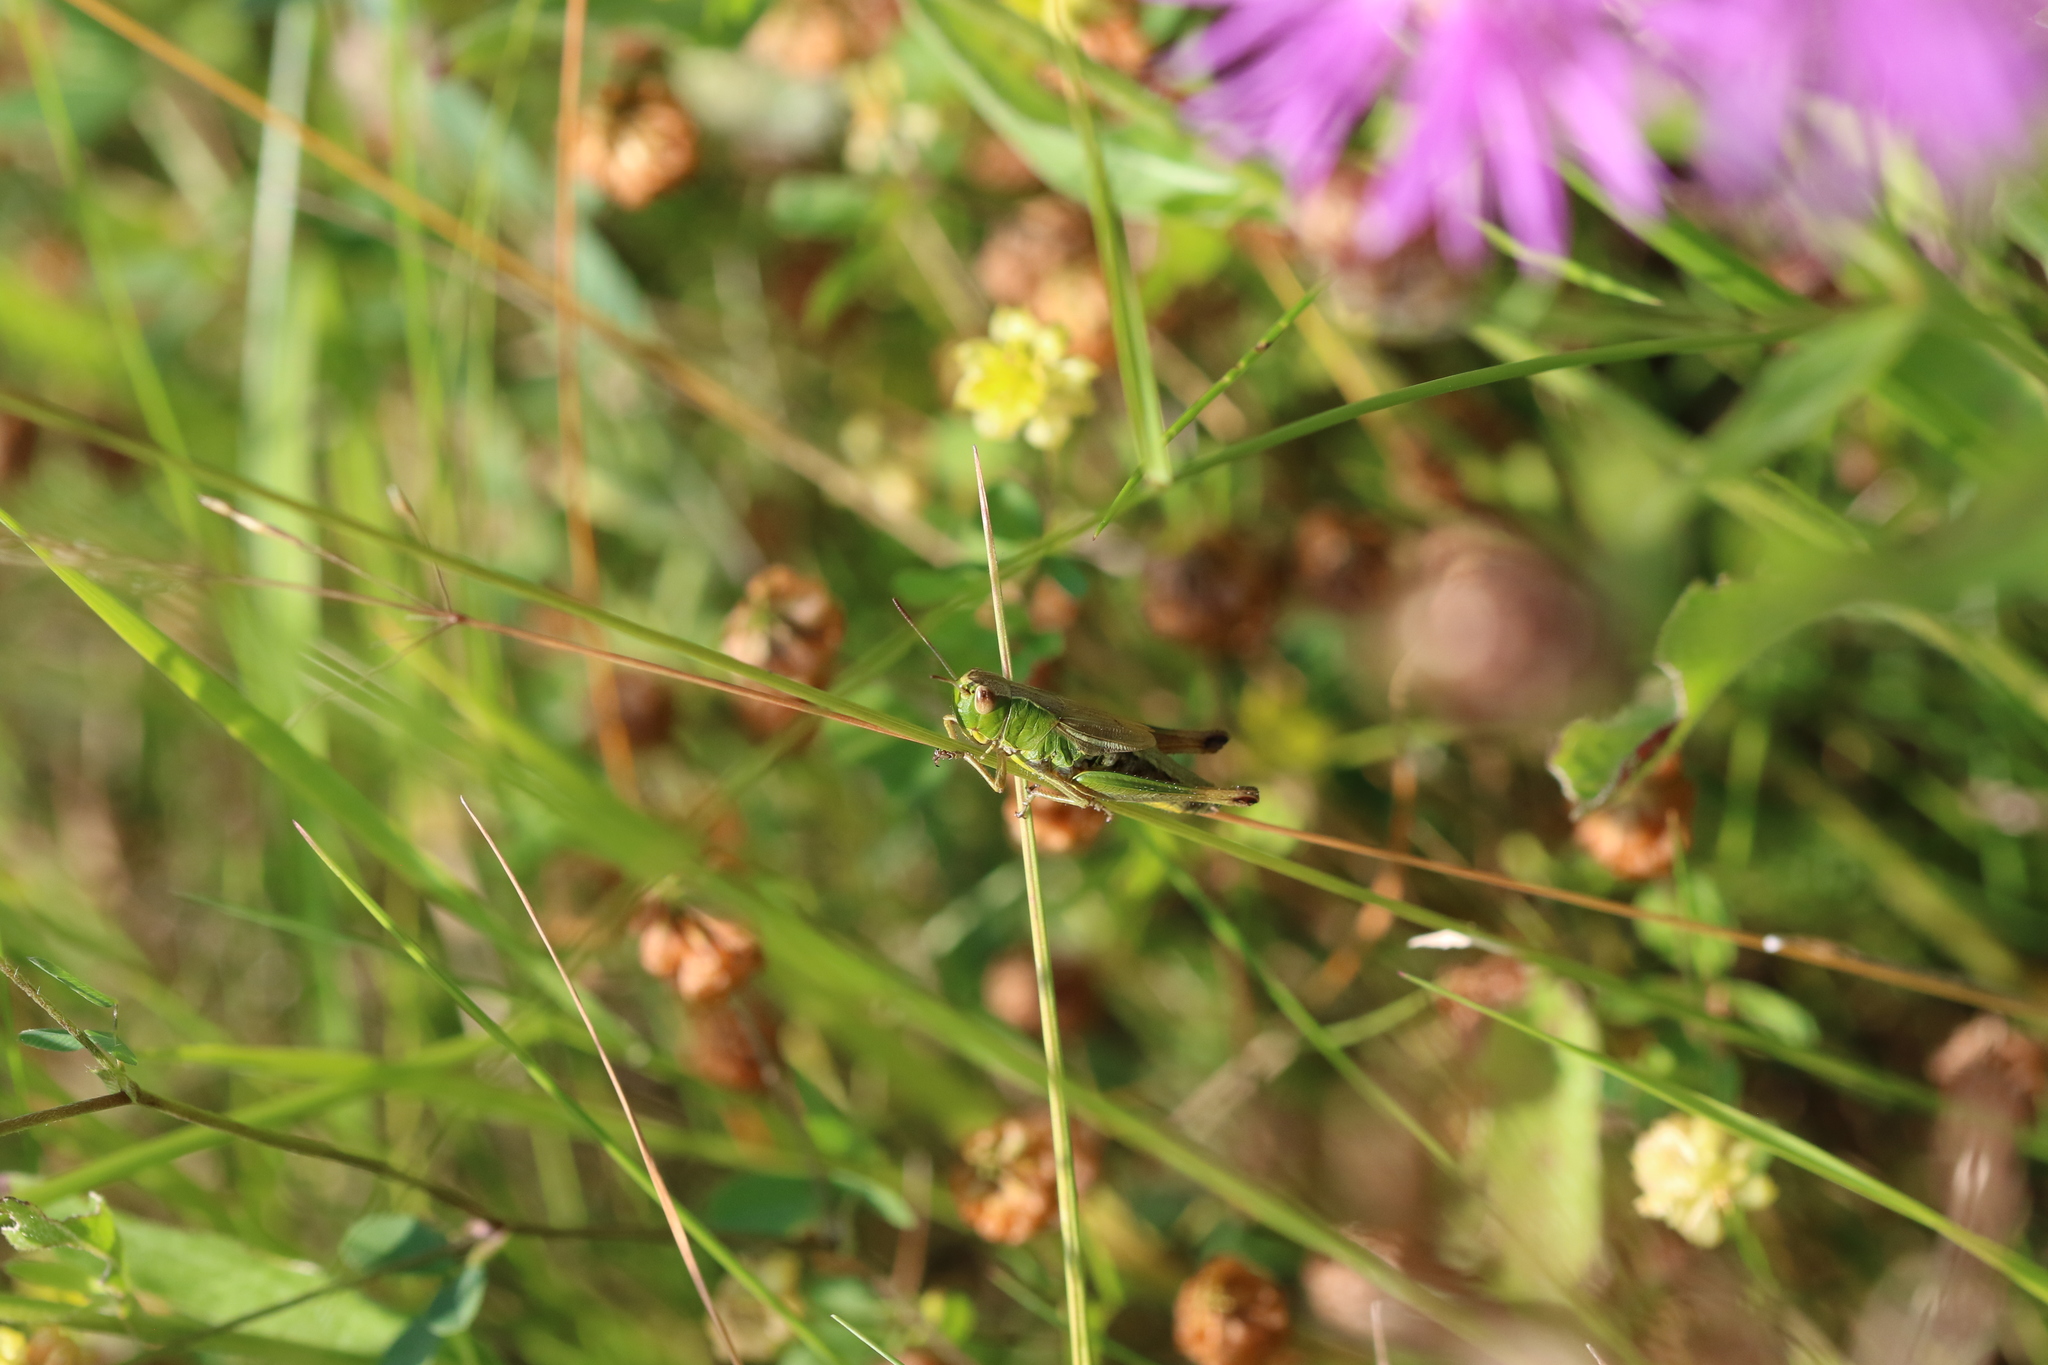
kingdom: Animalia
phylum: Arthropoda
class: Insecta
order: Orthoptera
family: Acrididae
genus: Pseudochorthippus
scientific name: Pseudochorthippus parallelus
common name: Meadow grasshopper
